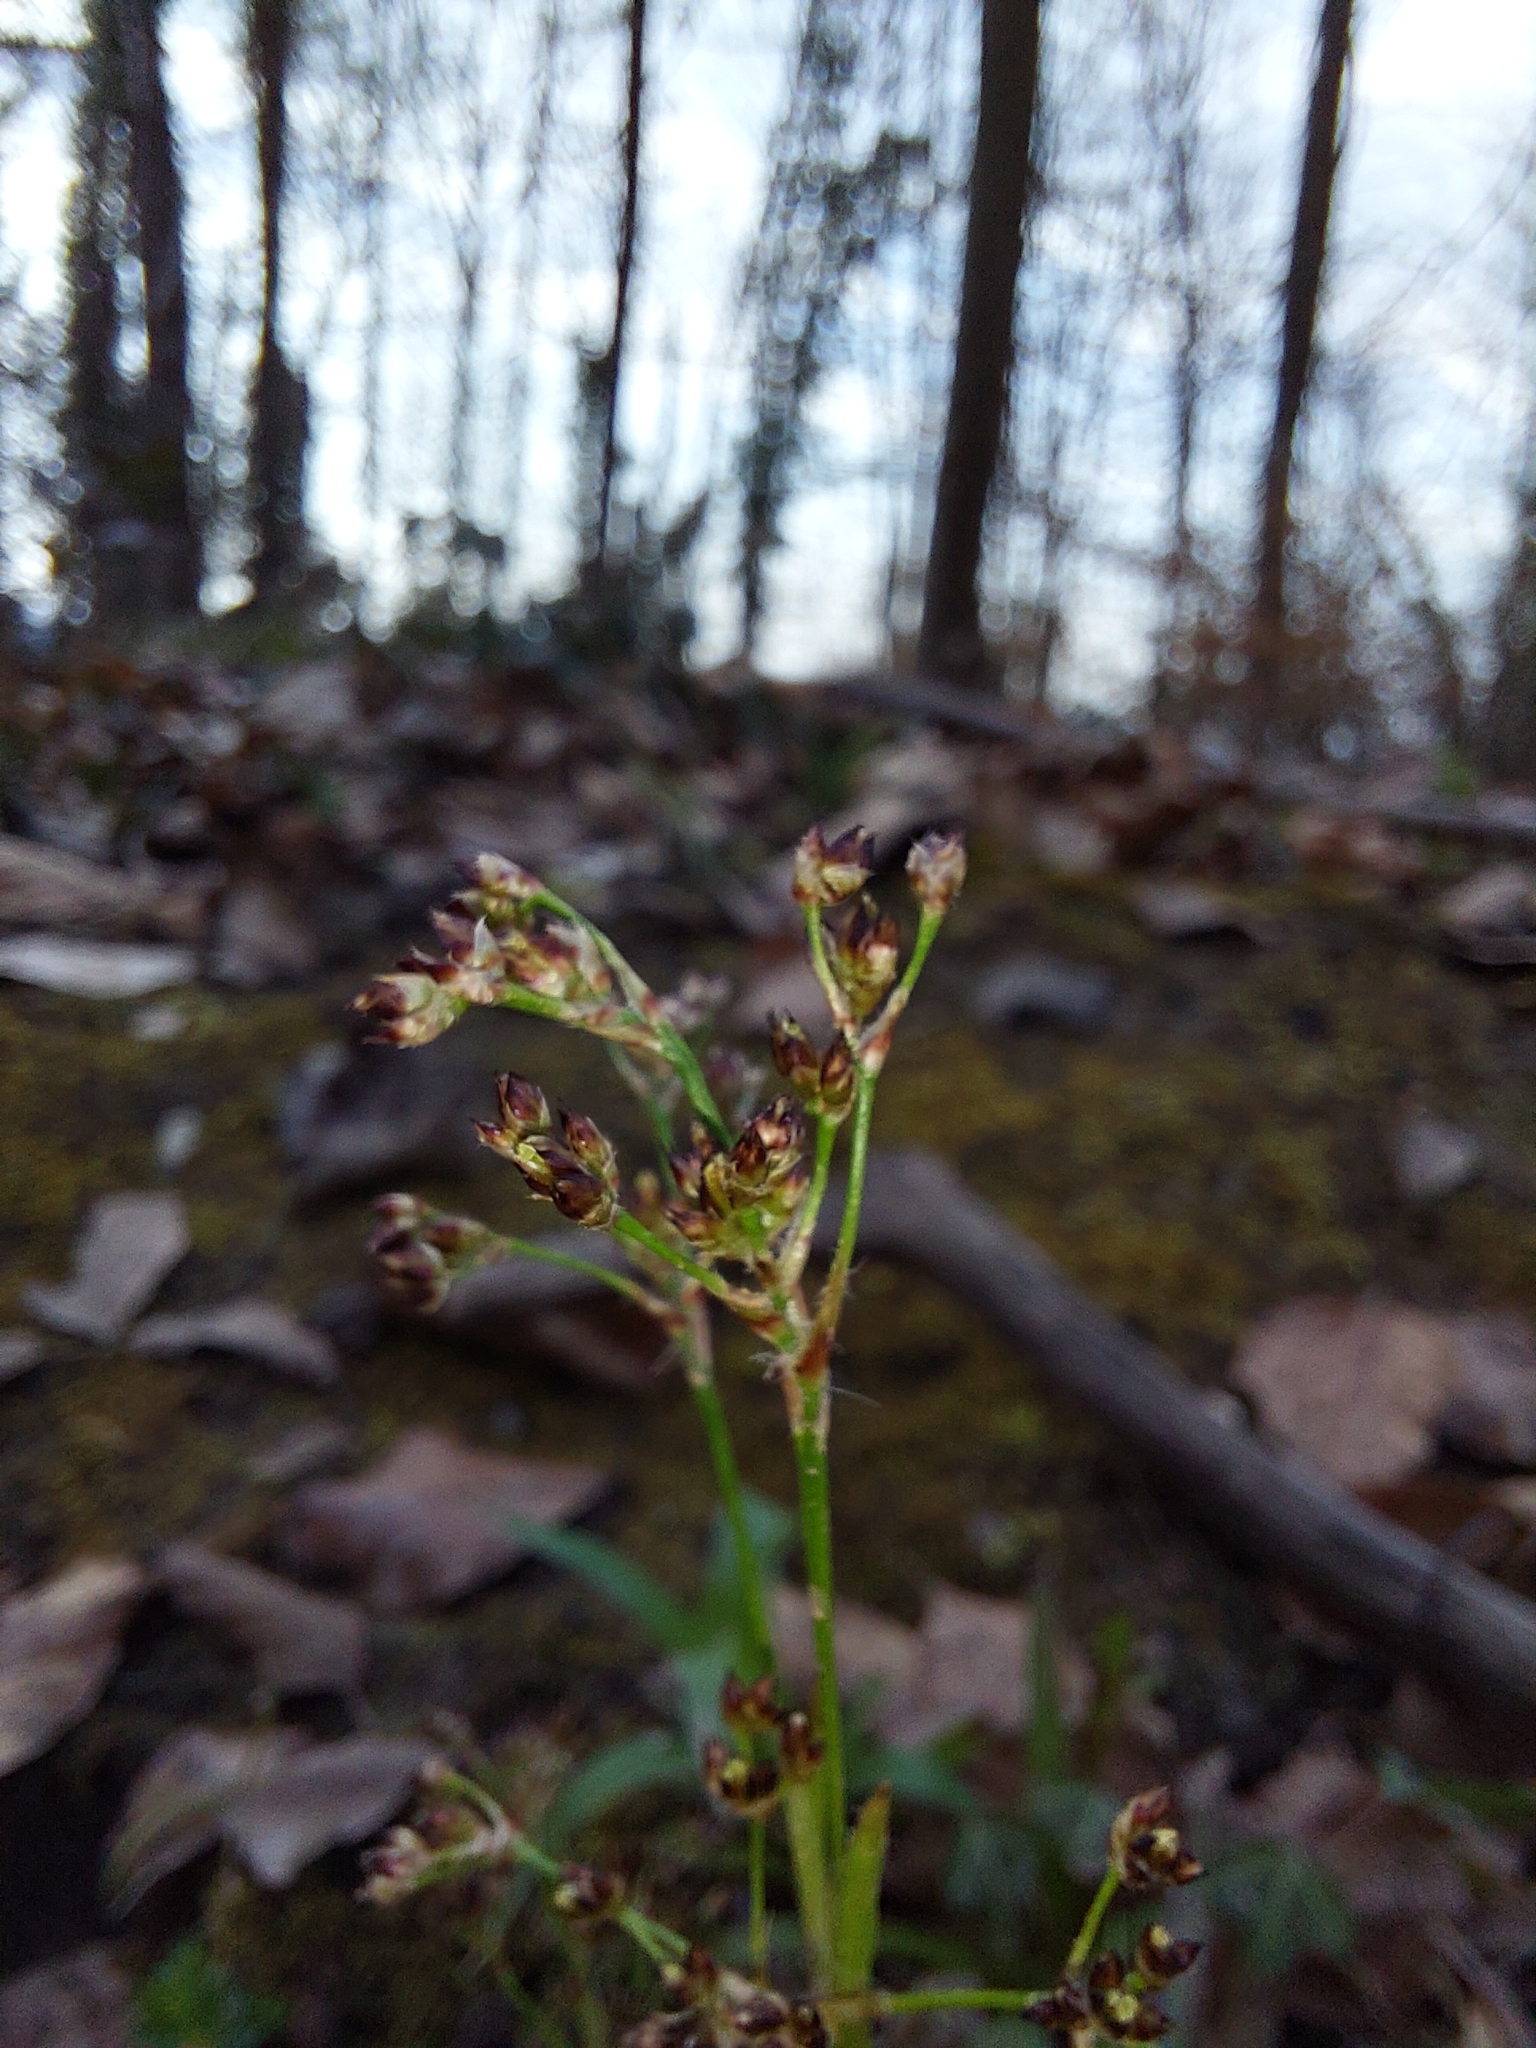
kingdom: Plantae
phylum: Tracheophyta
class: Liliopsida
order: Poales
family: Juncaceae
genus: Luzula
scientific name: Luzula sylvatica
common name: Great wood-rush
